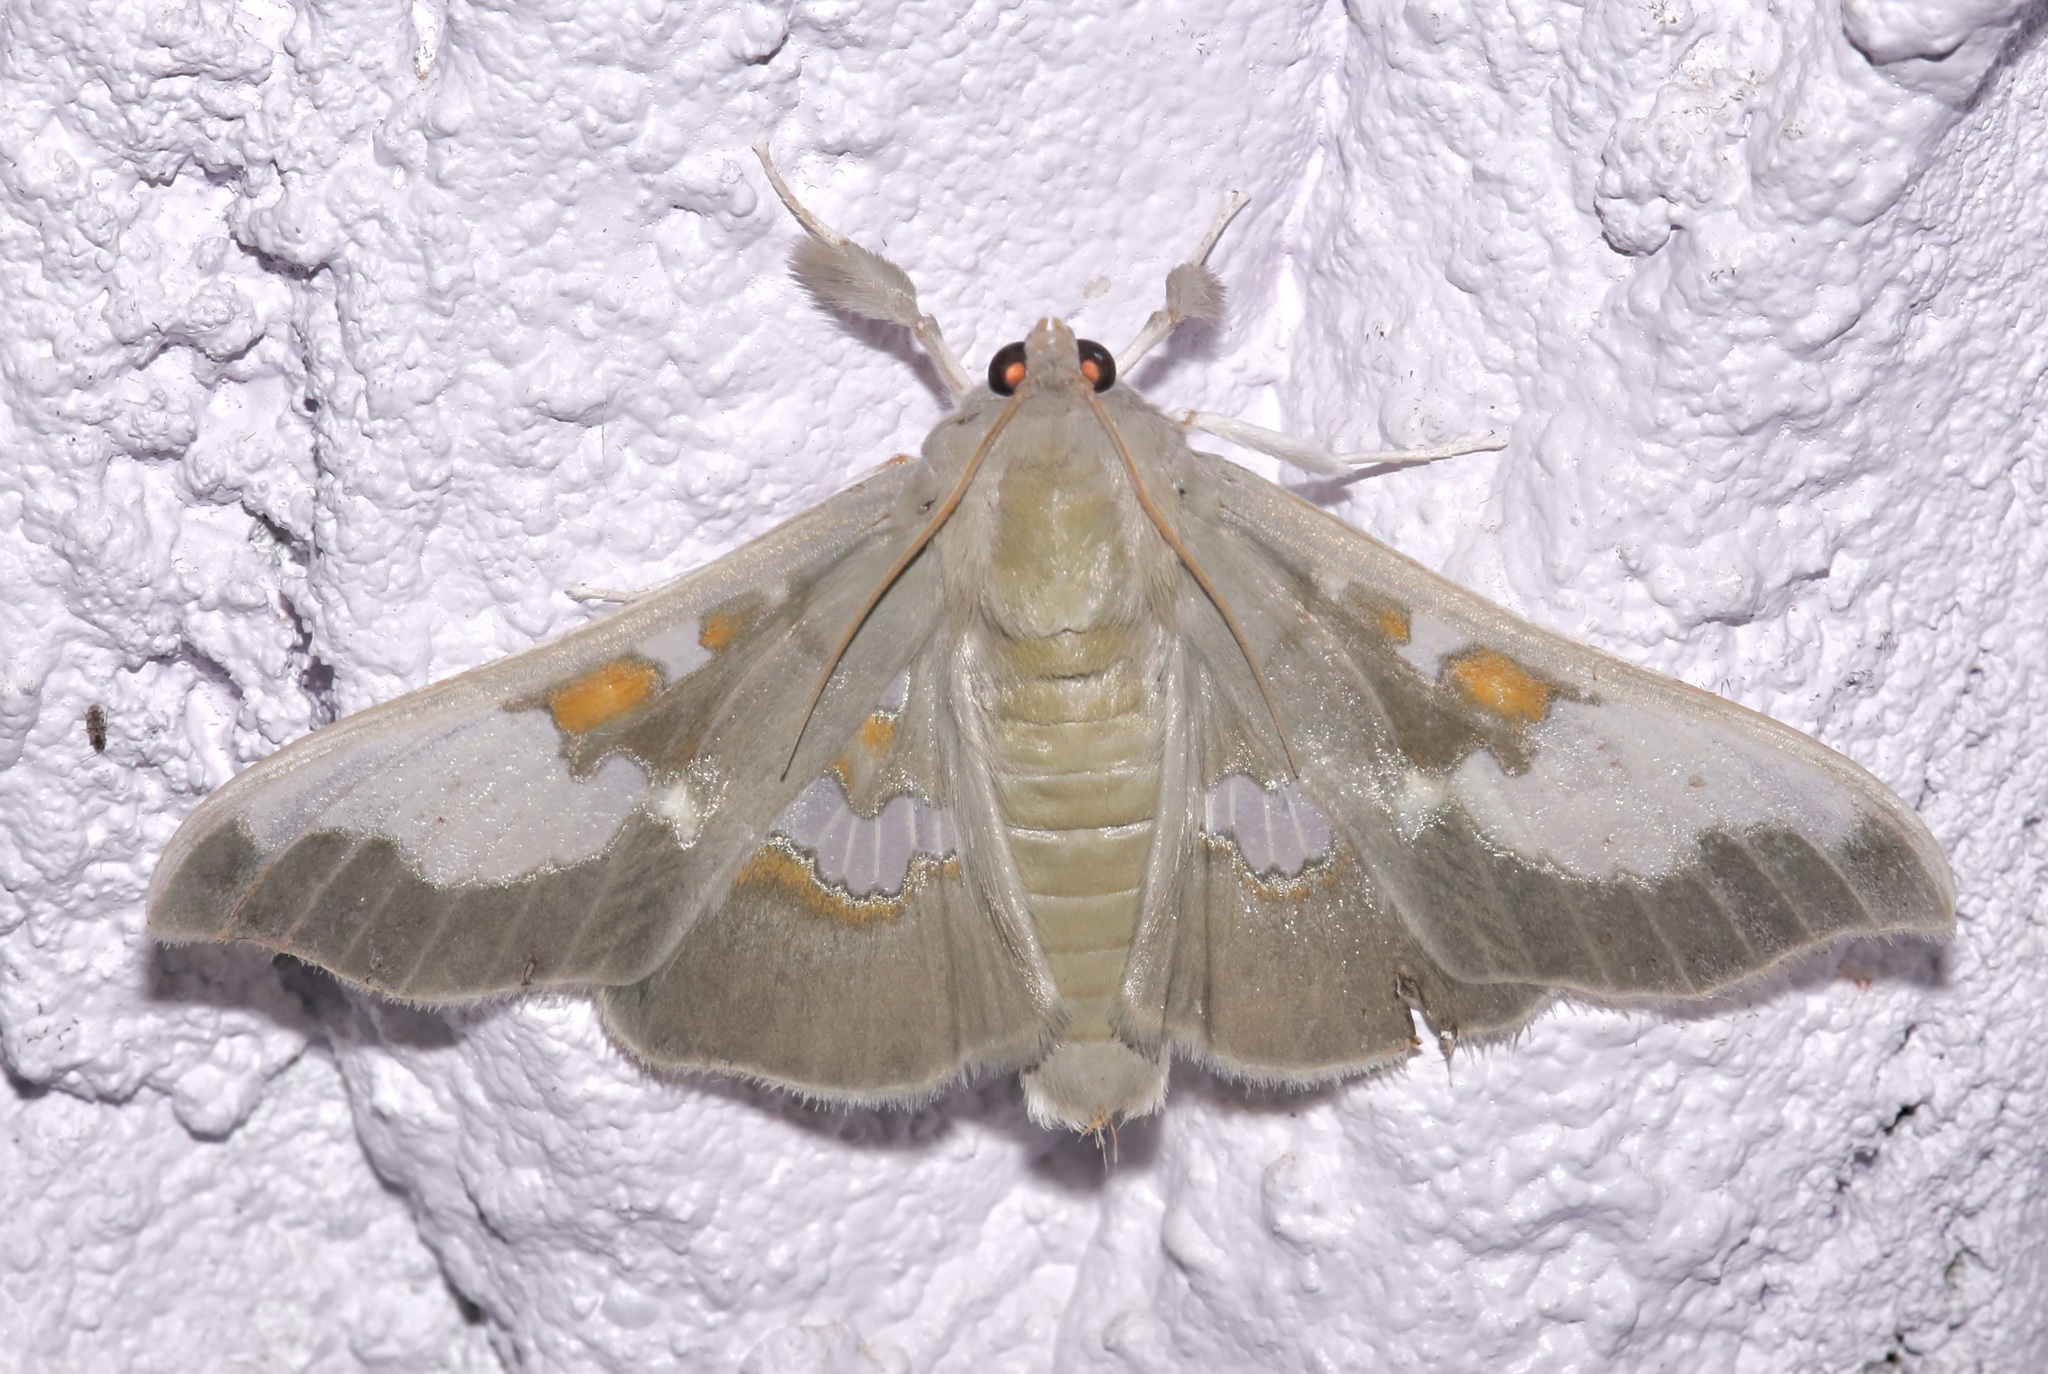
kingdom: Animalia
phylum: Arthropoda
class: Insecta
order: Lepidoptera
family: Crambidae
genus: Siga
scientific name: Siga pyronia
